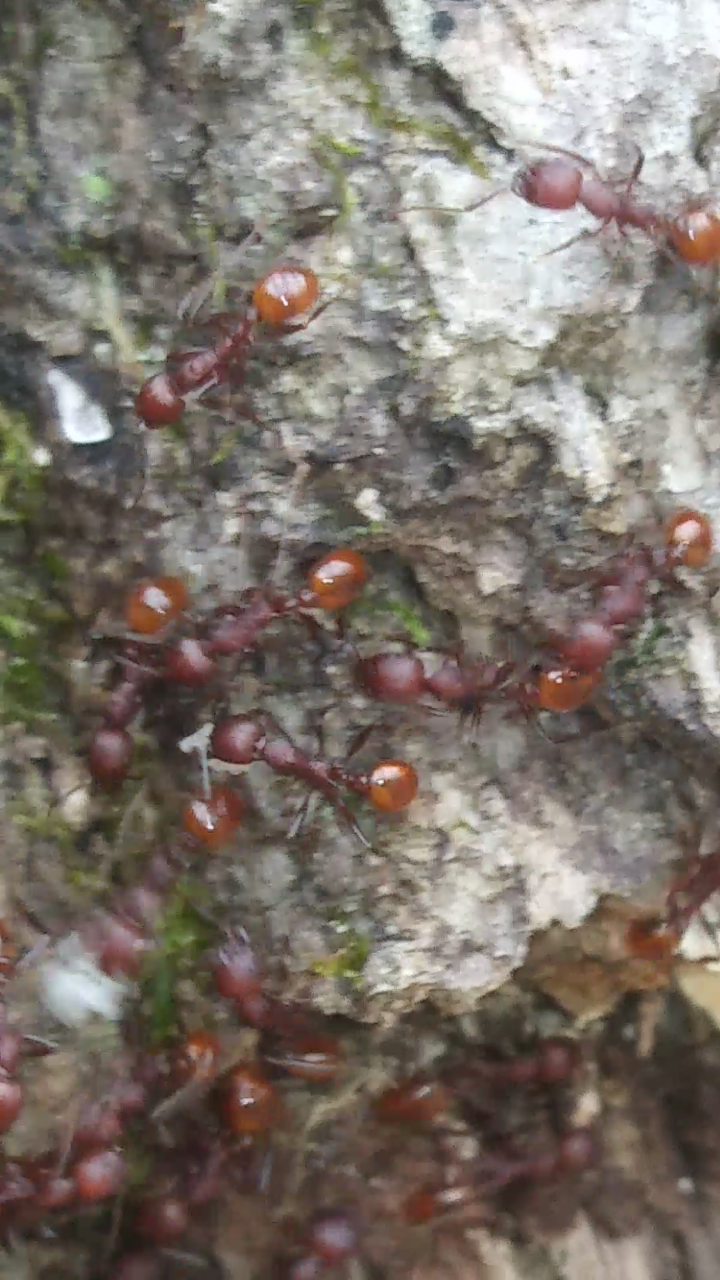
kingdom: Animalia
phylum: Arthropoda
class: Insecta
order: Hymenoptera
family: Formicidae
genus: Aphaenogaster
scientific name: Aphaenogaster tennesseensis
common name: Tennessee thread-waisted ant
